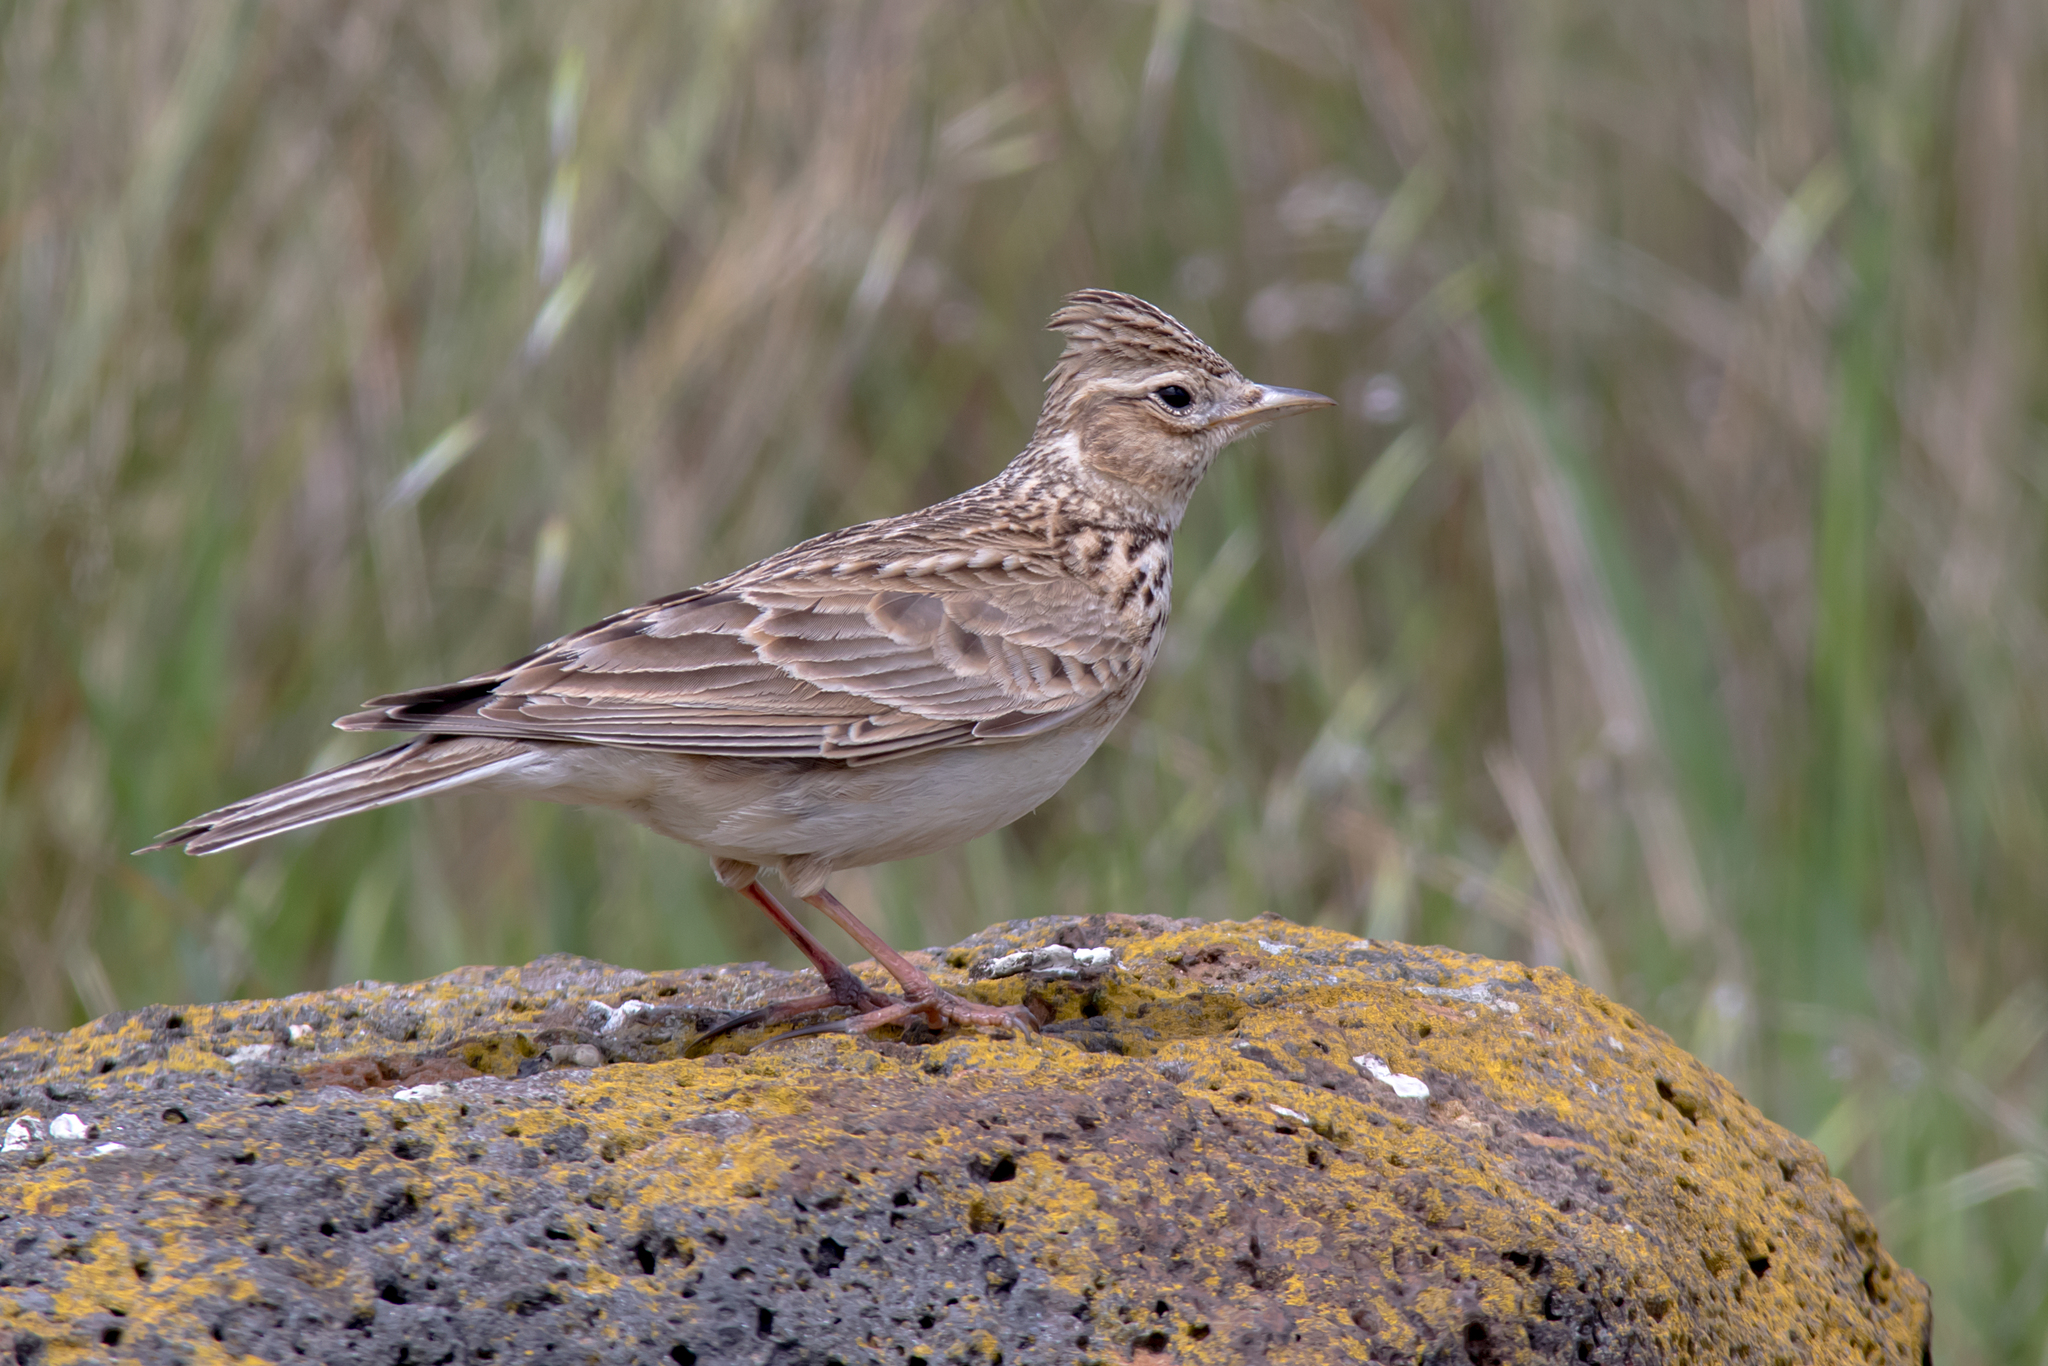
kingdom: Animalia
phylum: Chordata
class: Aves
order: Passeriformes
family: Alaudidae
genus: Alauda
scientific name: Alauda arvensis
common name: Eurasian skylark
